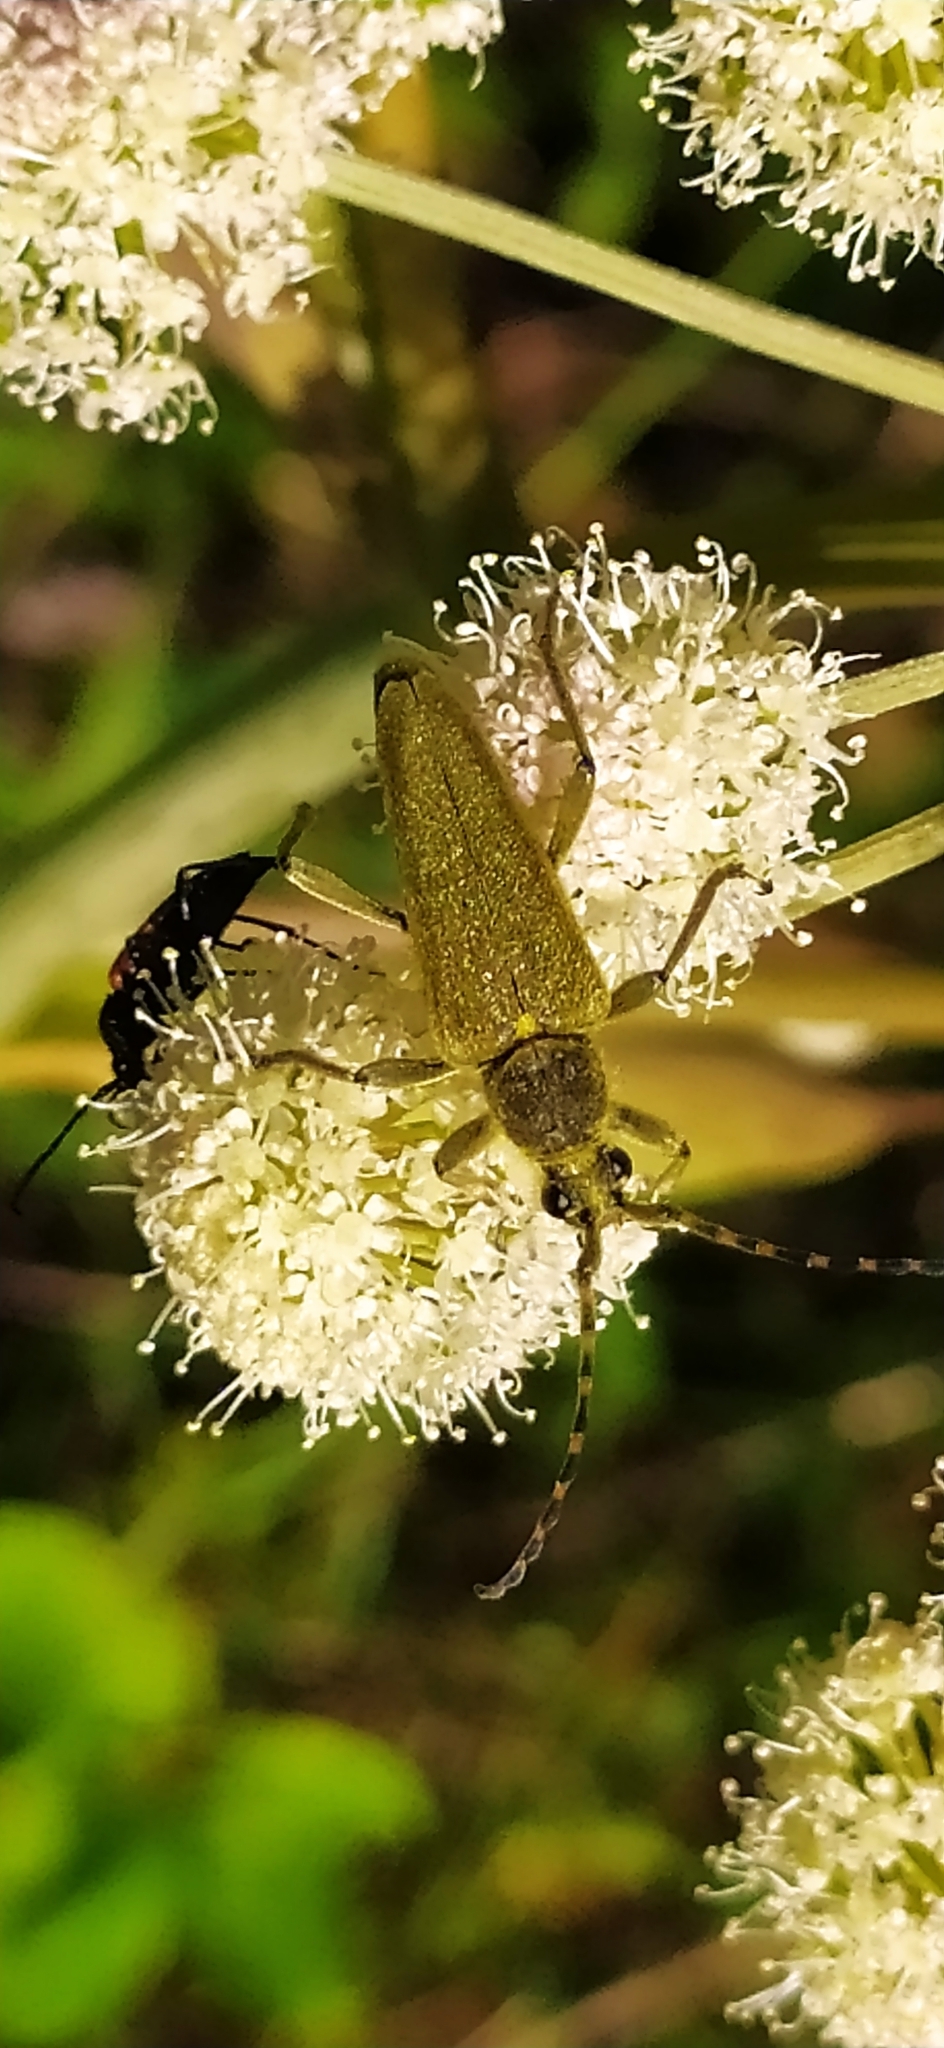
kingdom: Animalia
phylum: Arthropoda
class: Insecta
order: Coleoptera
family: Cerambycidae
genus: Lepturobosca
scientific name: Lepturobosca virens
